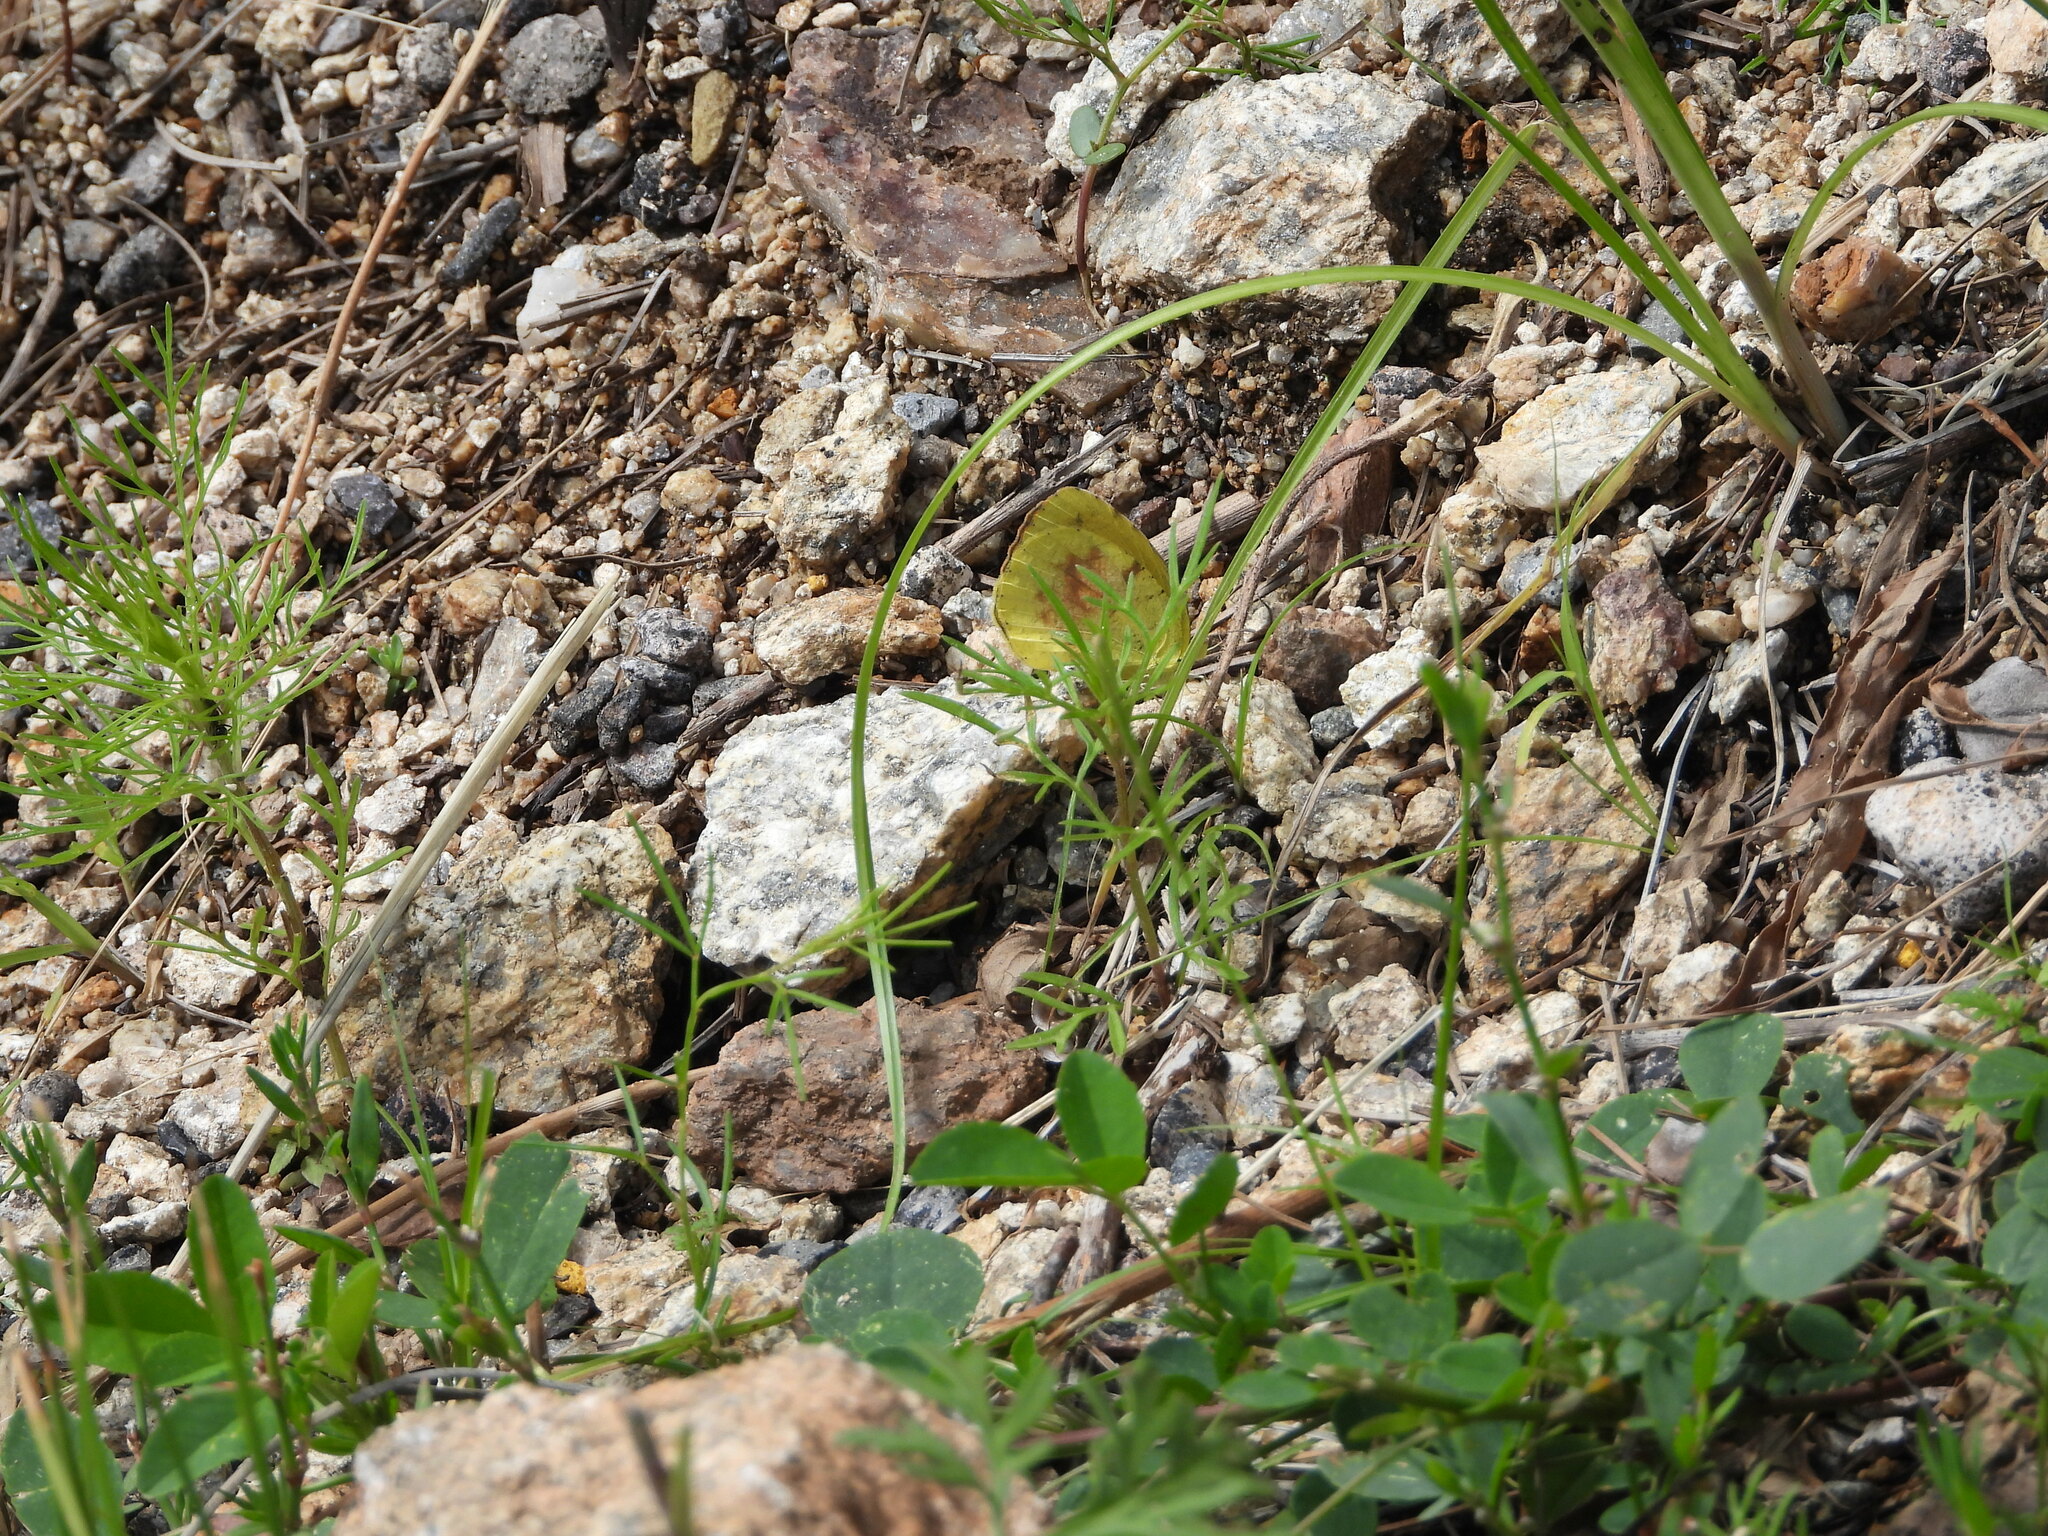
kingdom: Animalia
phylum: Arthropoda
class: Insecta
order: Lepidoptera
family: Pieridae
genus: Abaeis
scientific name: Abaeis nicippe
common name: Sleepy orange
